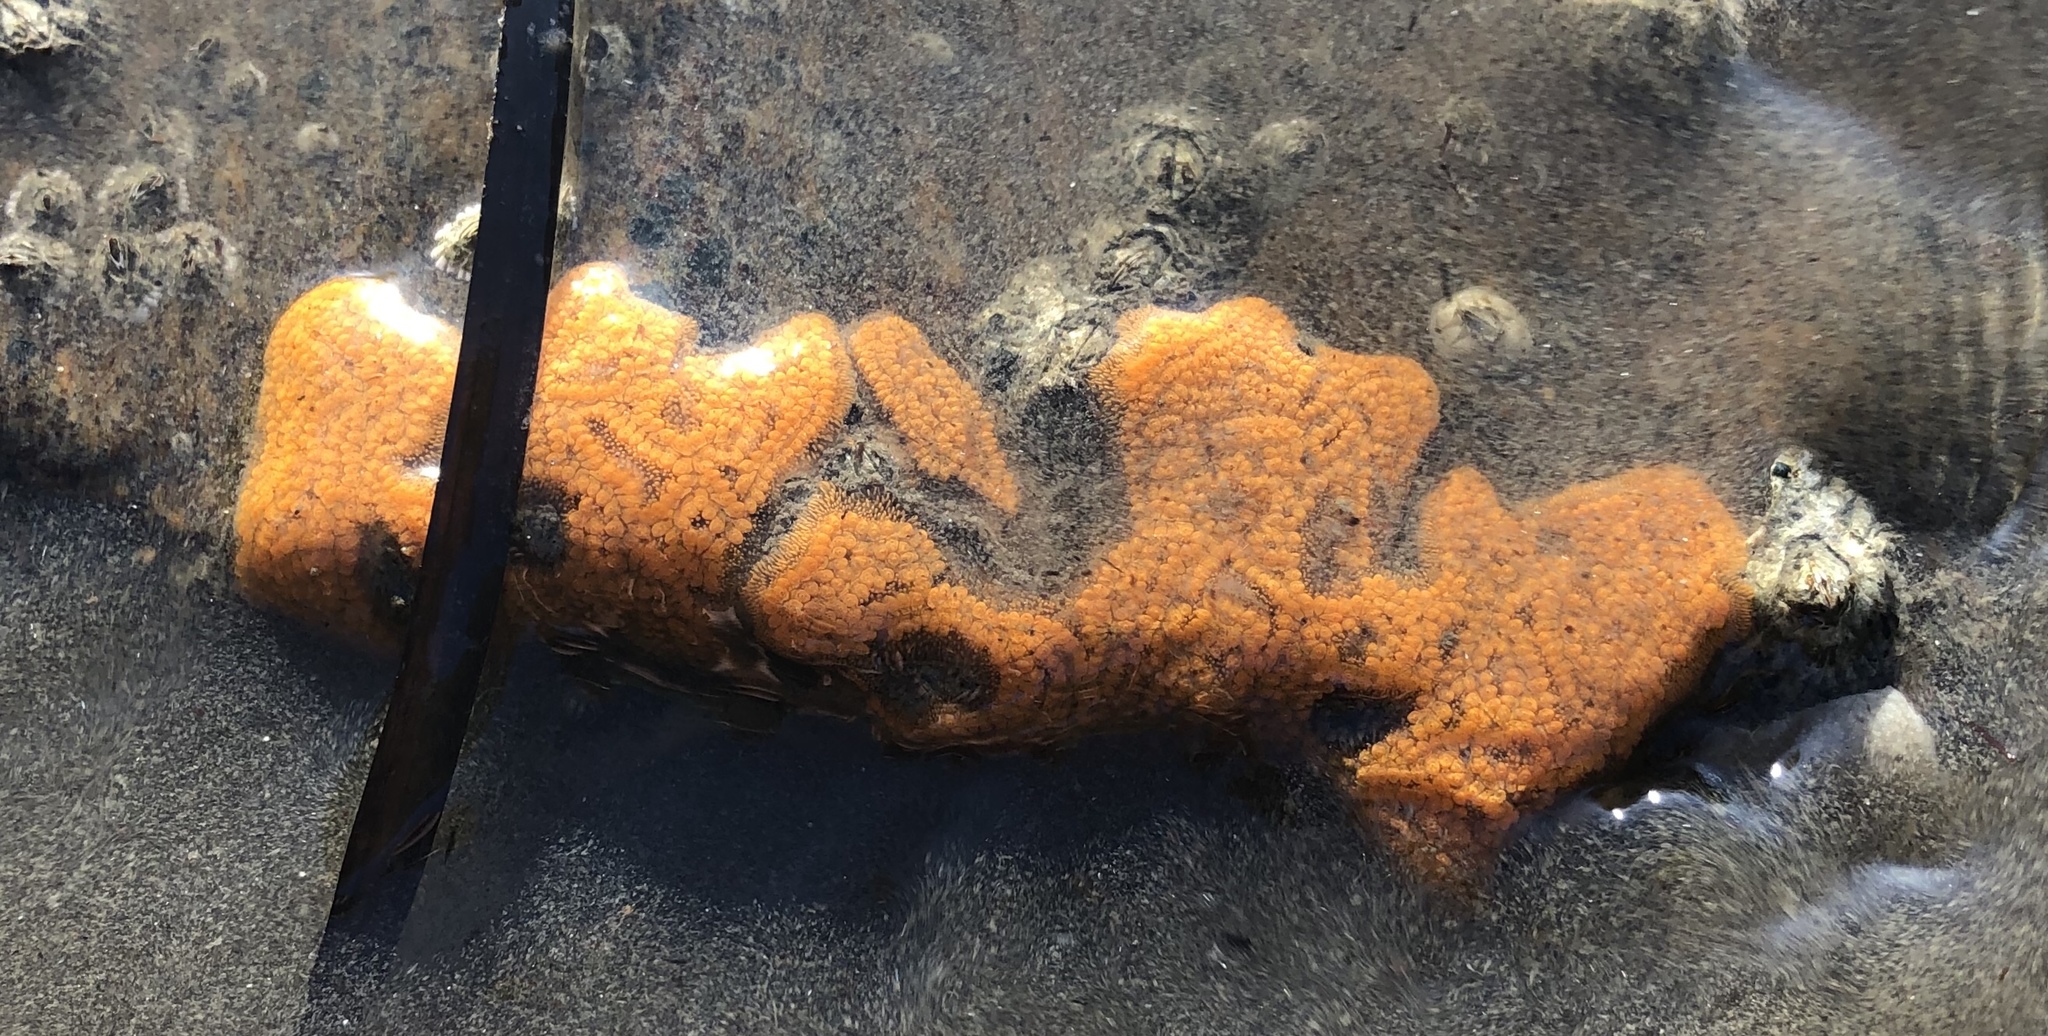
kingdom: Animalia
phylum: Chordata
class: Ascidiacea
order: Stolidobranchia
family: Styelidae
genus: Botrylloides
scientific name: Botrylloides violaceus
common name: Colonial sea squirt
